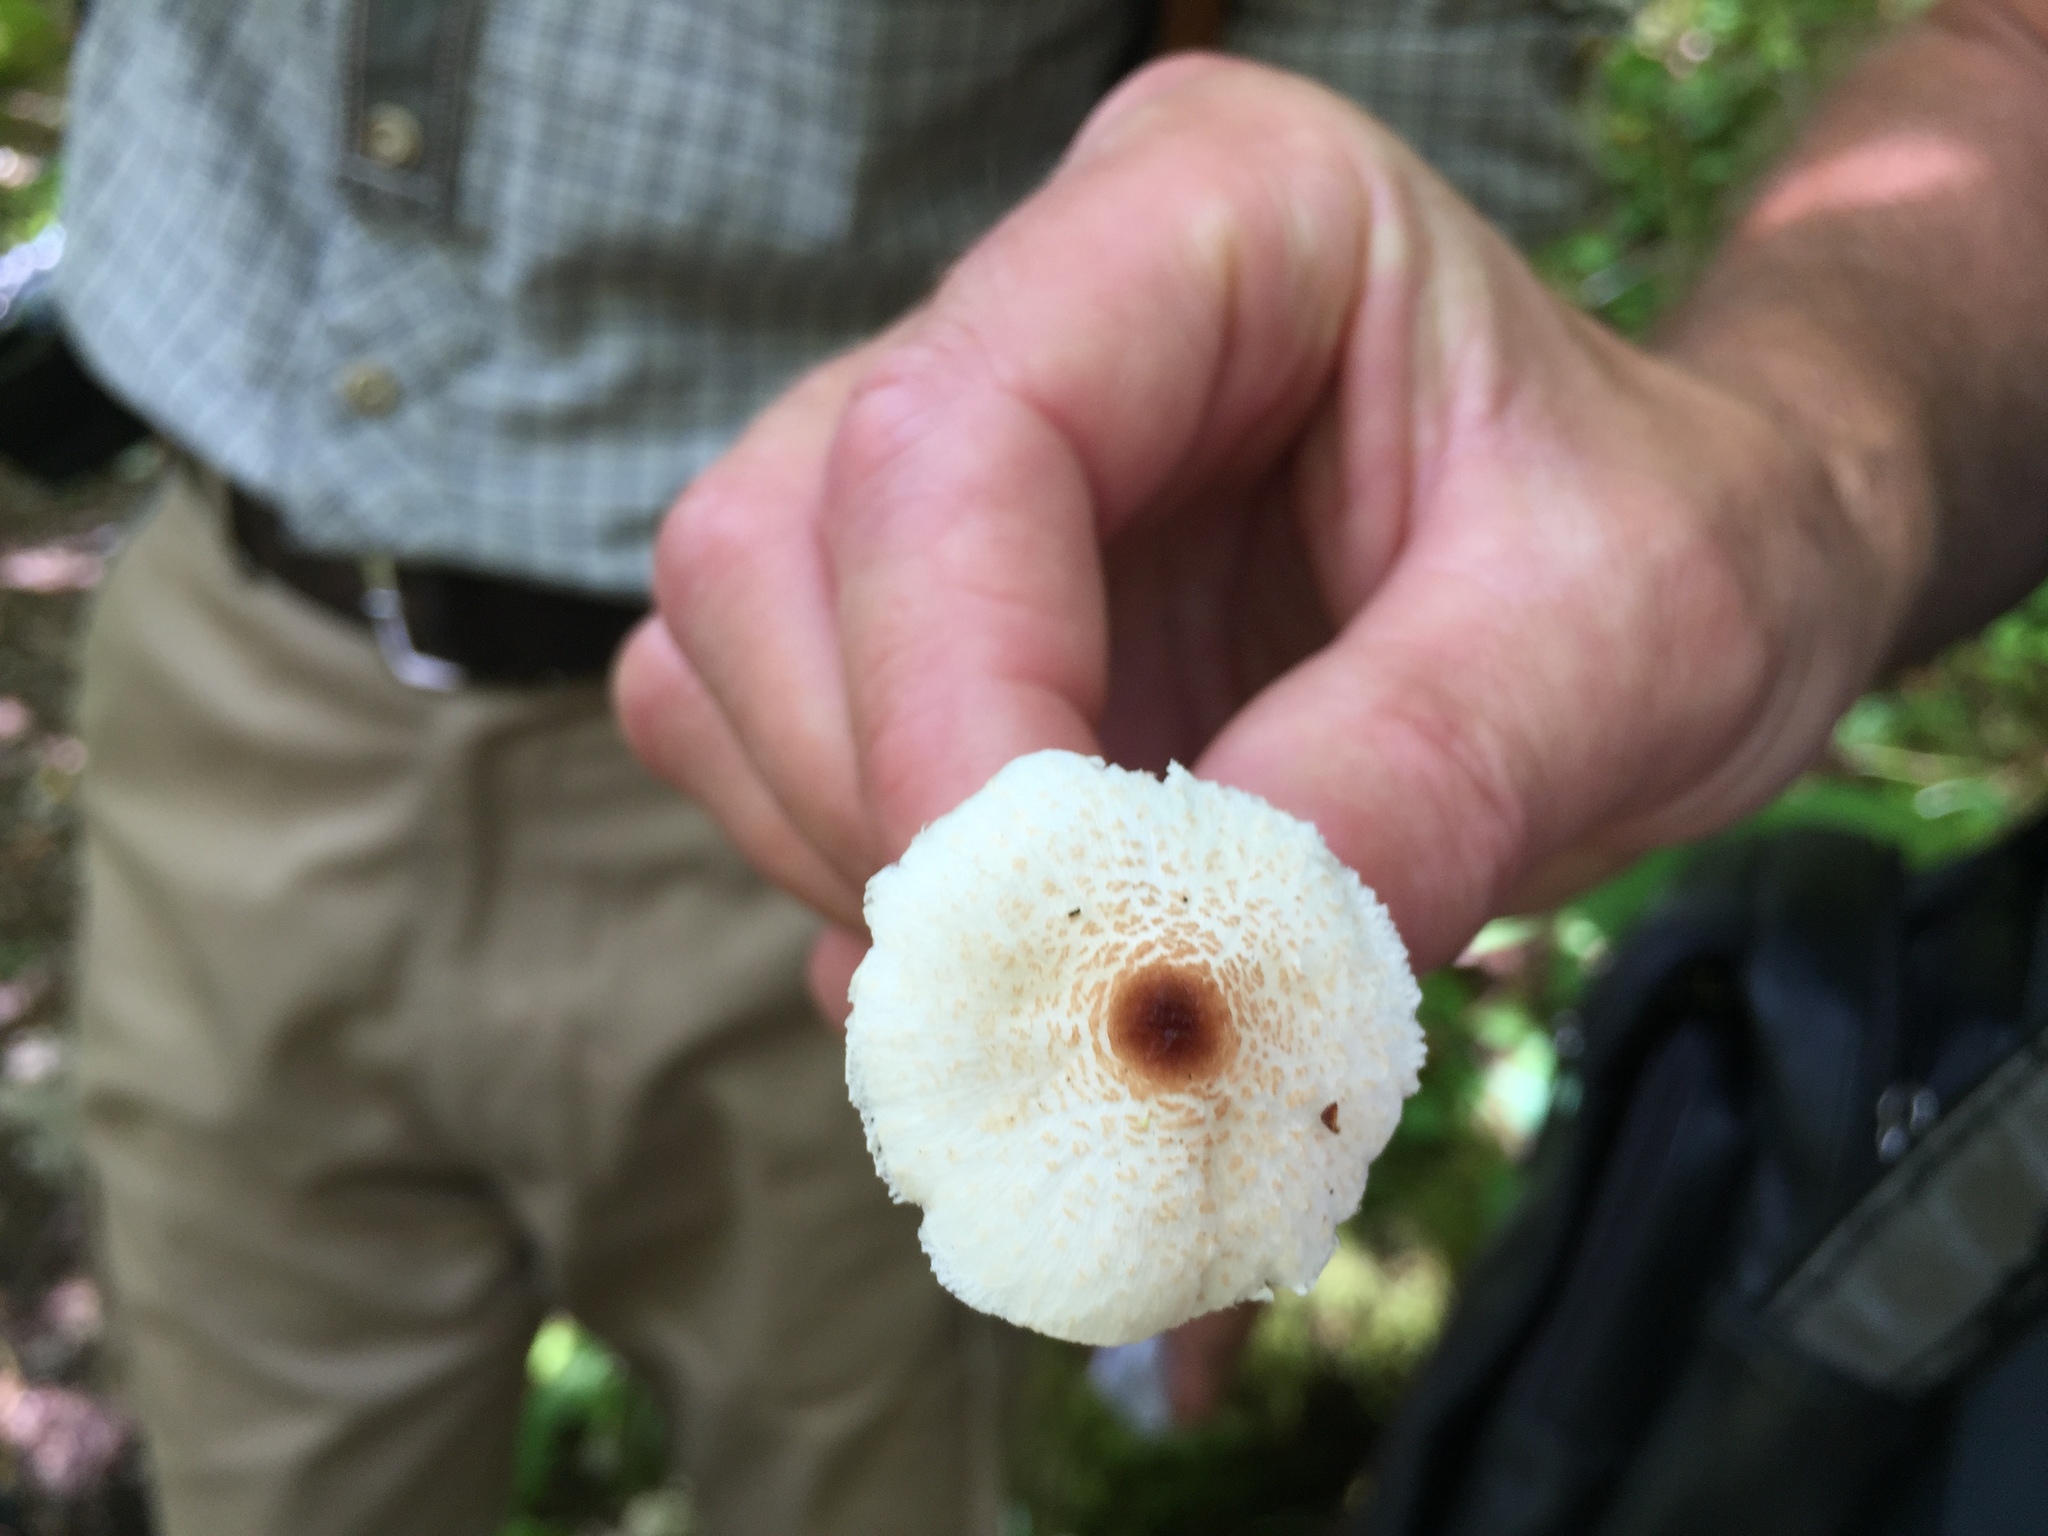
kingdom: Fungi
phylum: Basidiomycota
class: Agaricomycetes
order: Agaricales
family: Agaricaceae
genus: Lepiota
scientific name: Lepiota cristata
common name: Stinking dapperling
